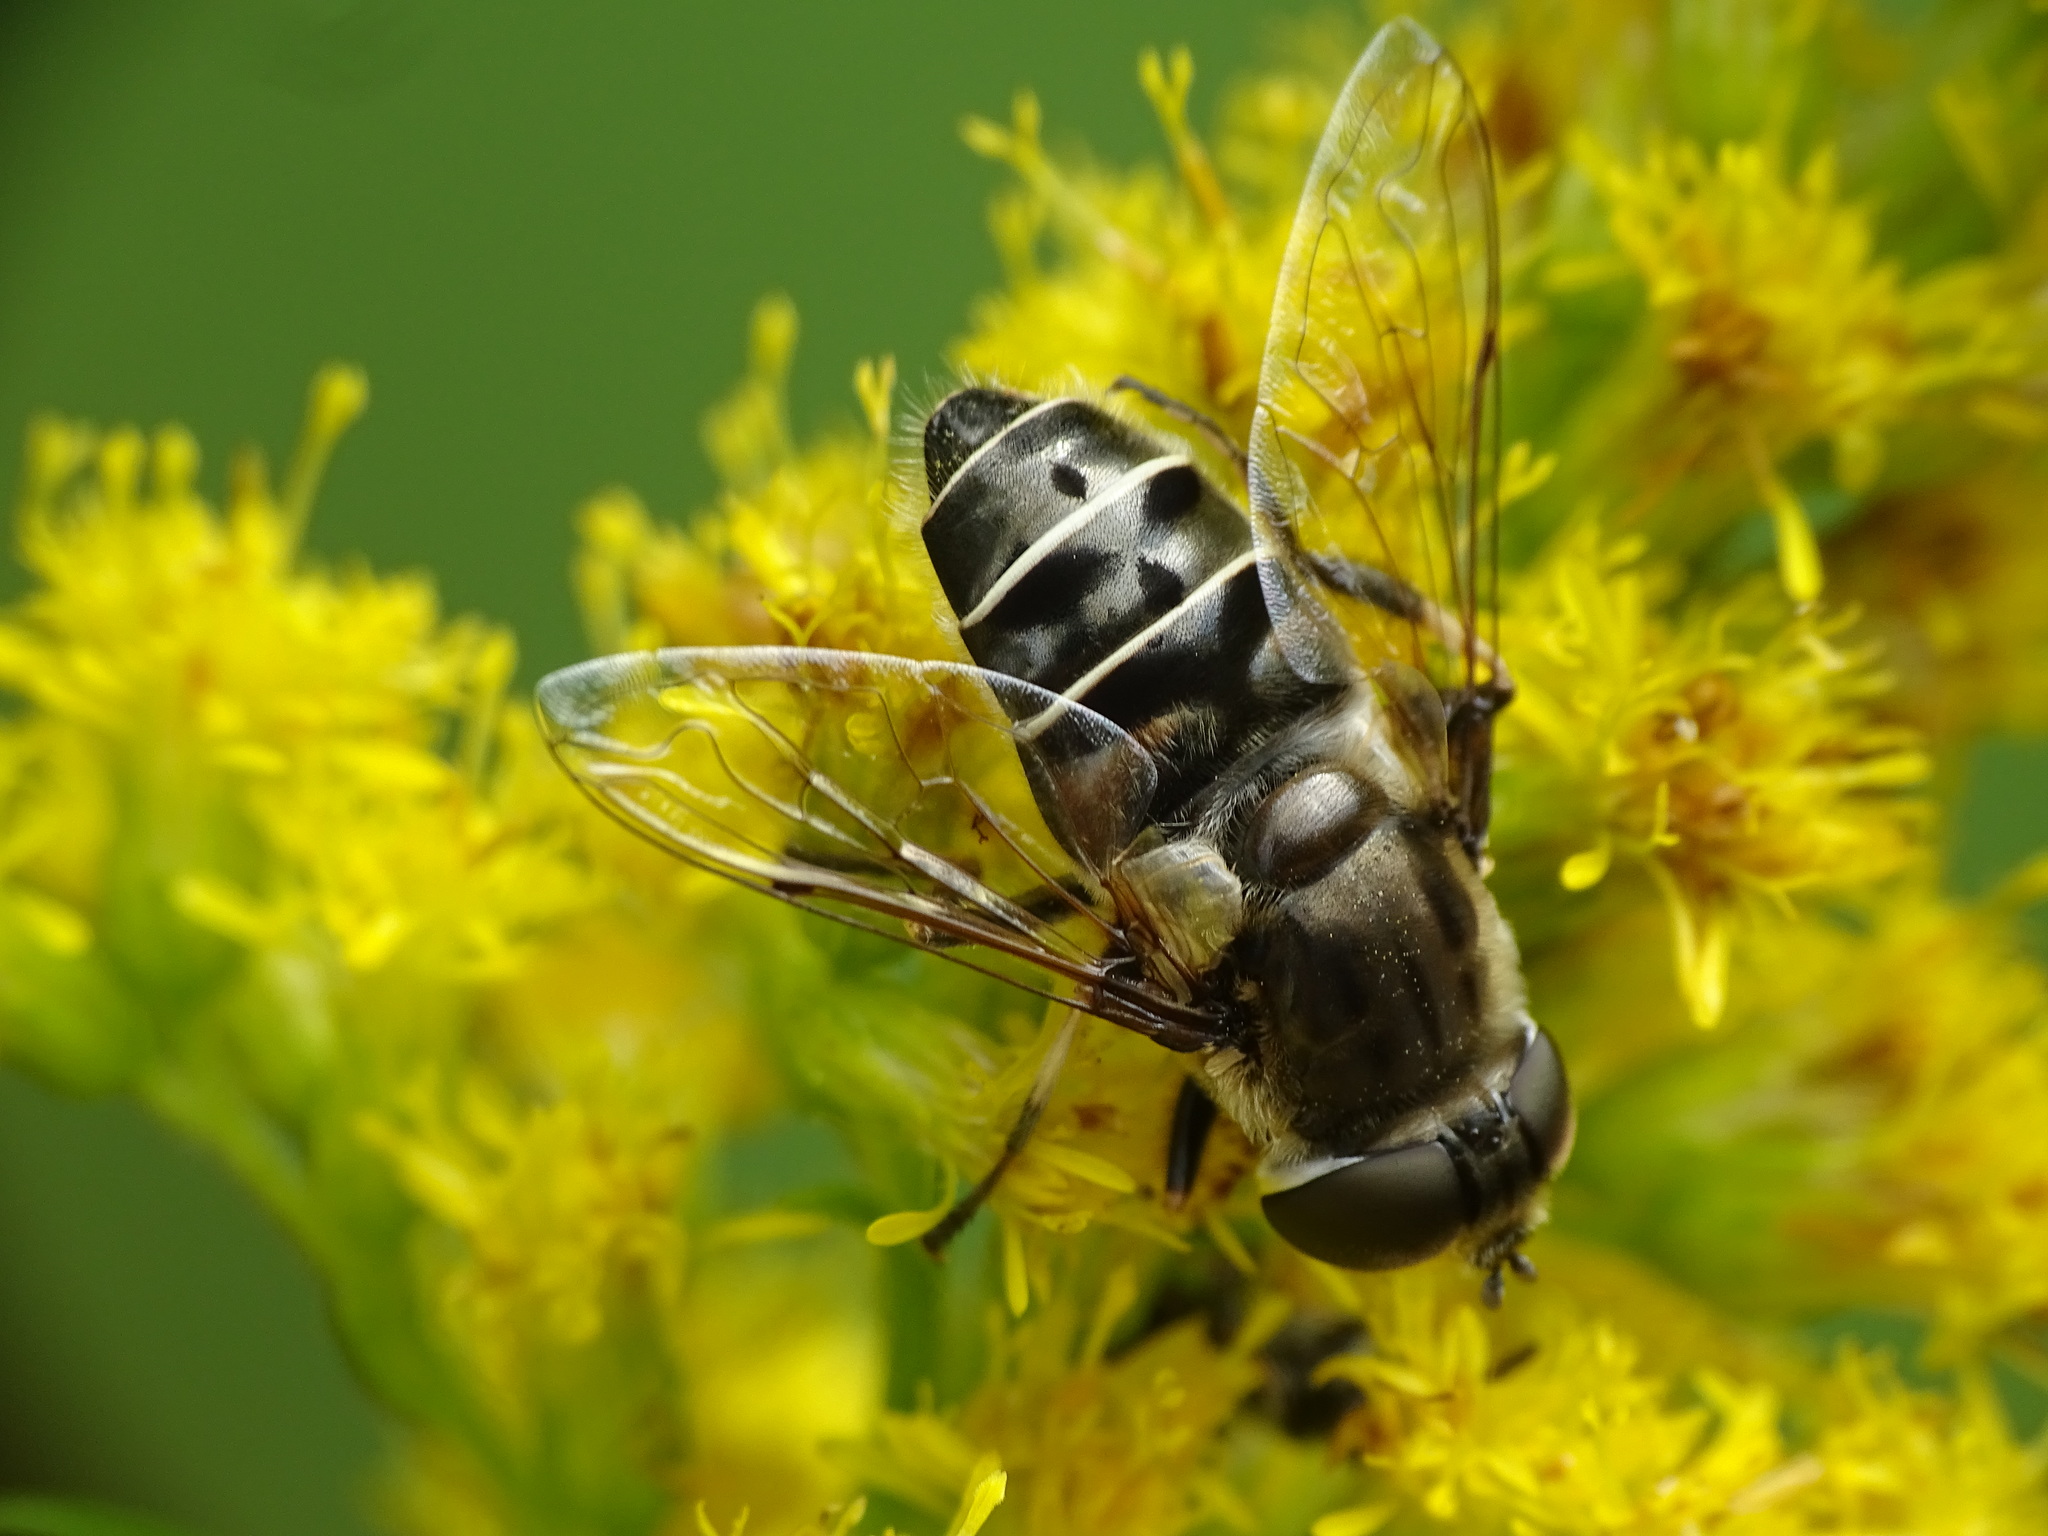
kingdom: Animalia
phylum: Arthropoda
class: Insecta
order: Diptera
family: Syrphidae
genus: Eristalis
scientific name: Eristalis dimidiata
